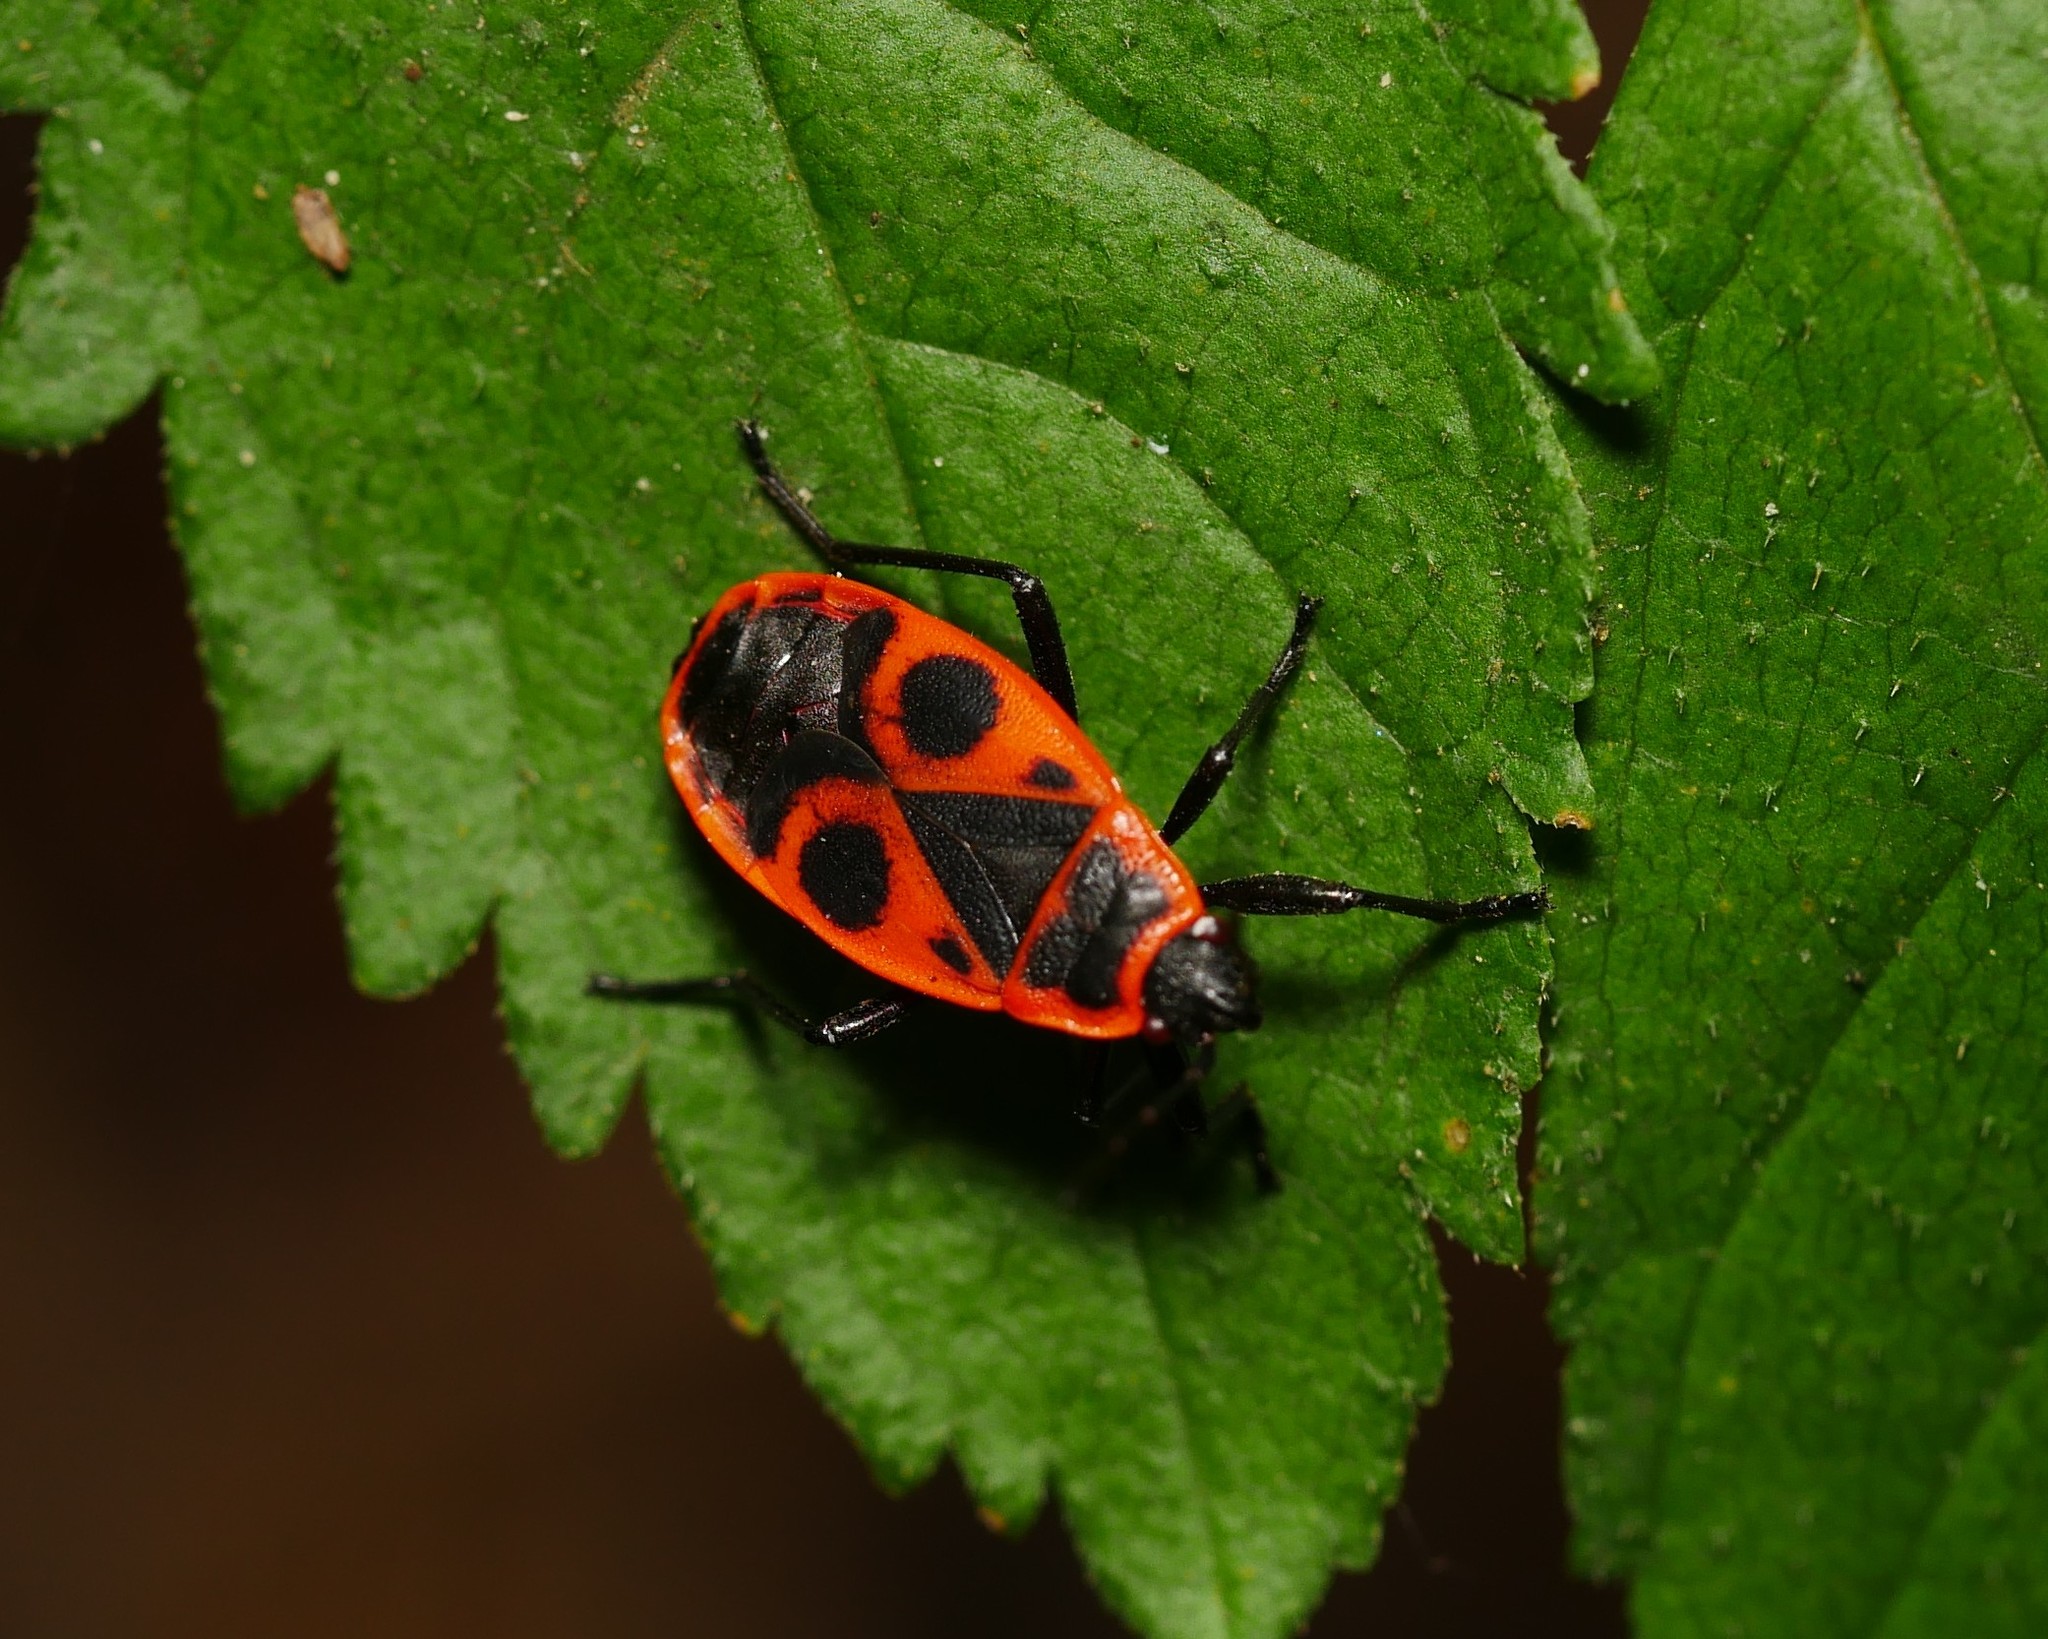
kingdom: Animalia
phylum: Arthropoda
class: Insecta
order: Hemiptera
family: Pyrrhocoridae
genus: Pyrrhocoris
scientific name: Pyrrhocoris apterus
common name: Firebug
